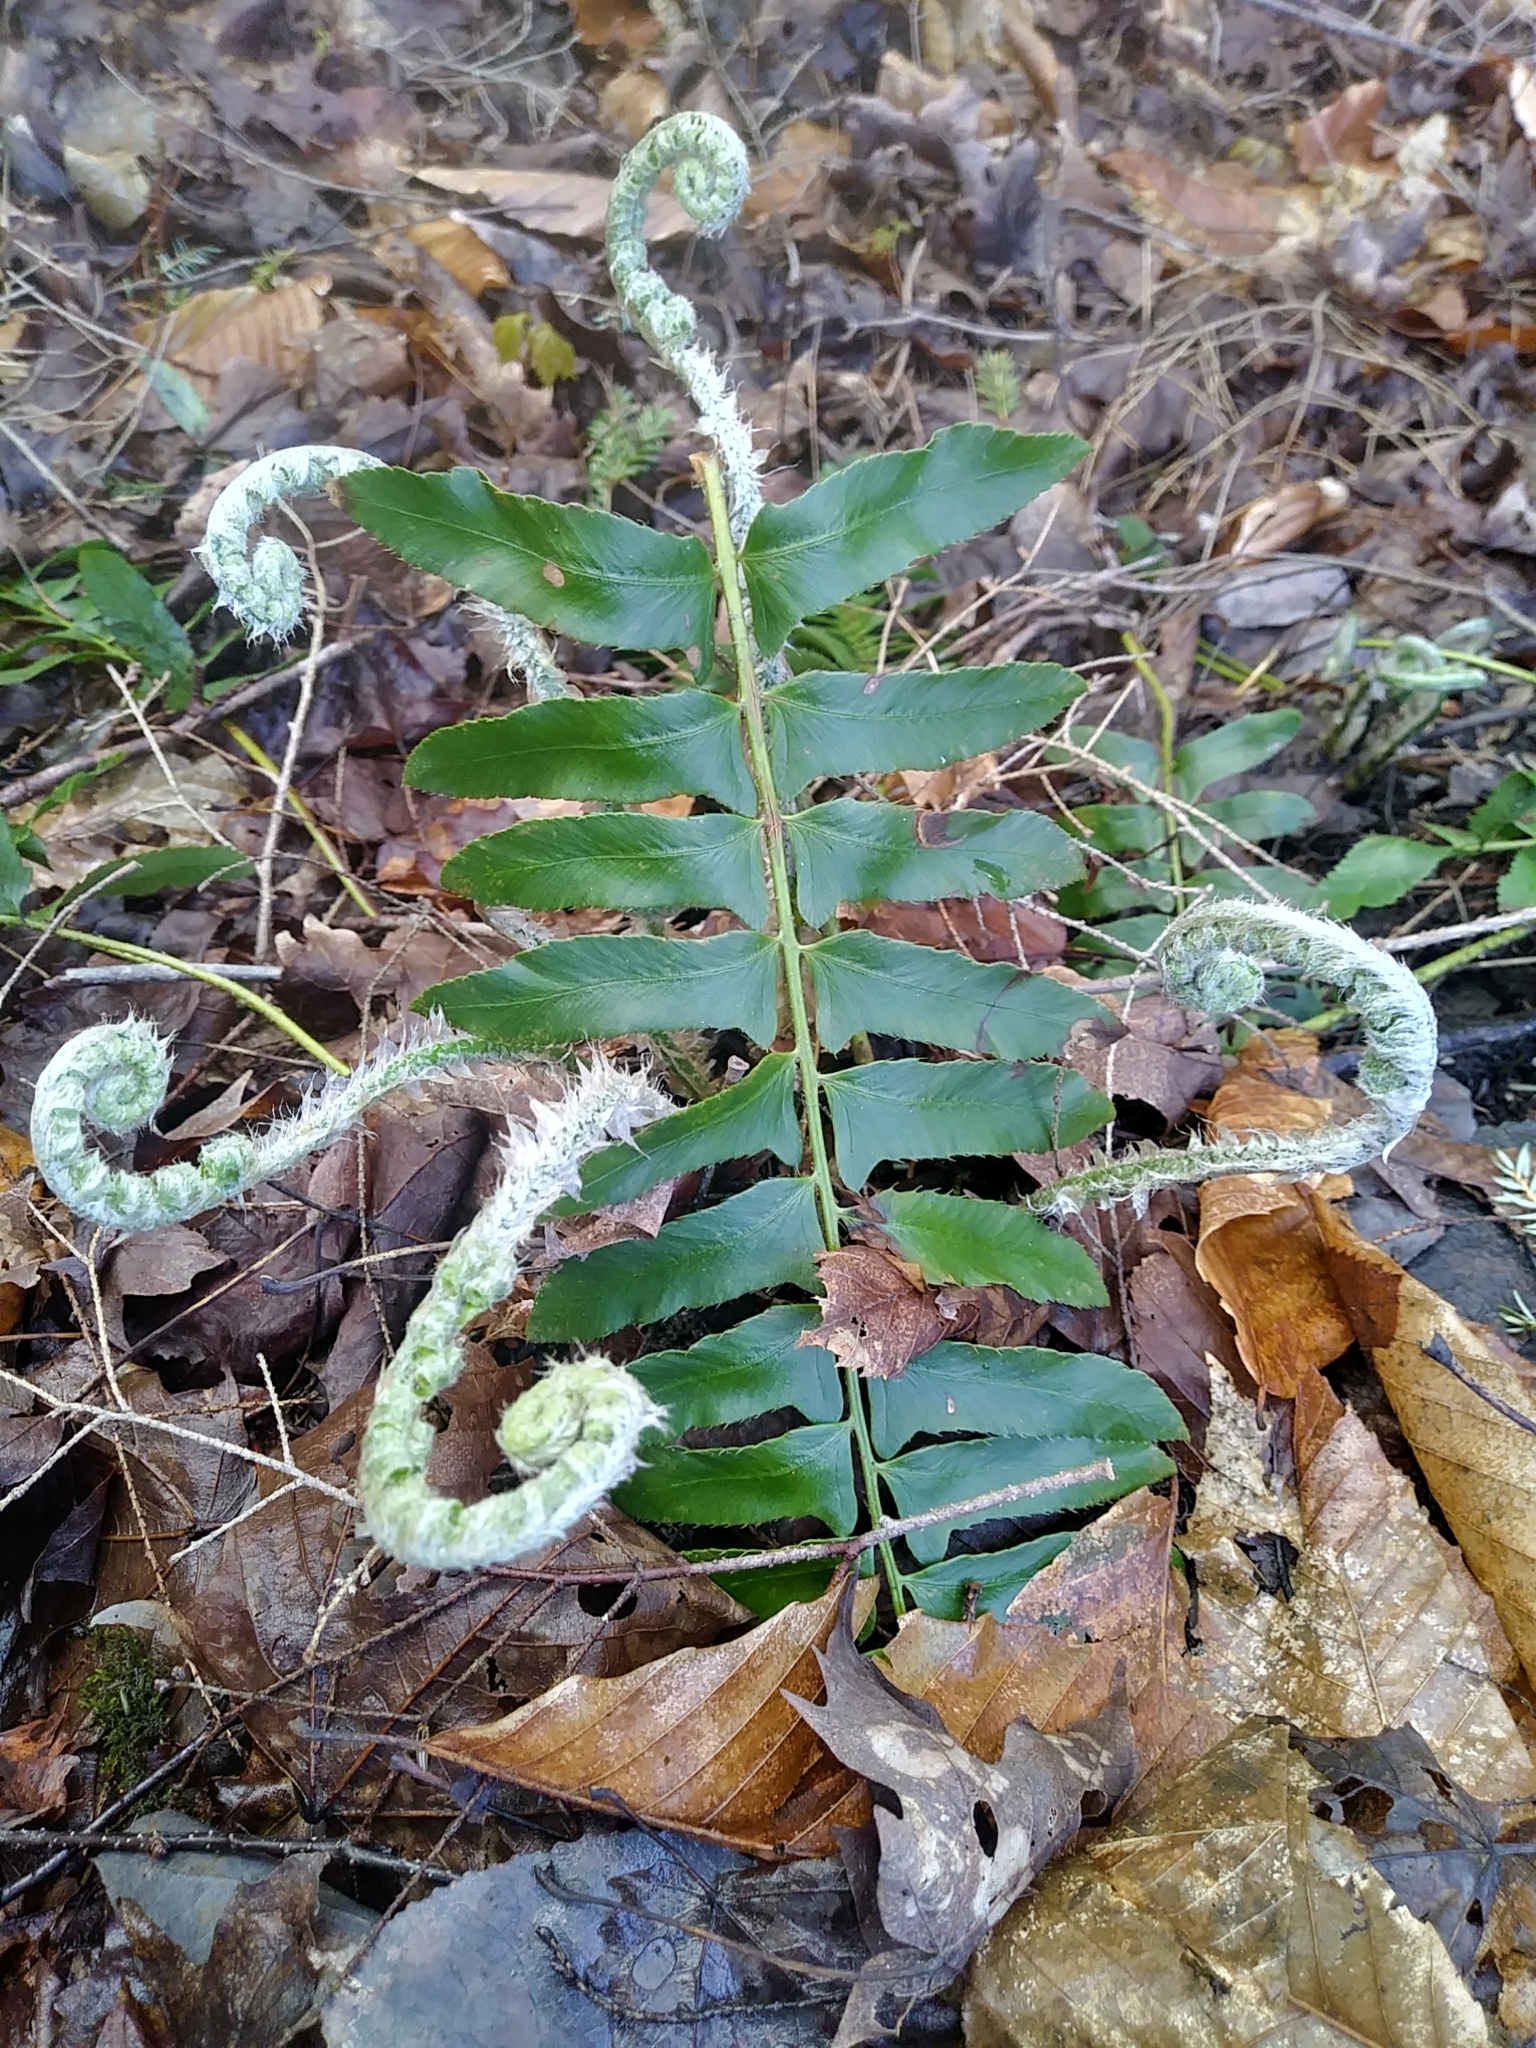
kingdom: Plantae
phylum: Tracheophyta
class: Polypodiopsida
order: Polypodiales
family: Dryopteridaceae
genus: Polystichum
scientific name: Polystichum acrostichoides
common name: Christmas fern
